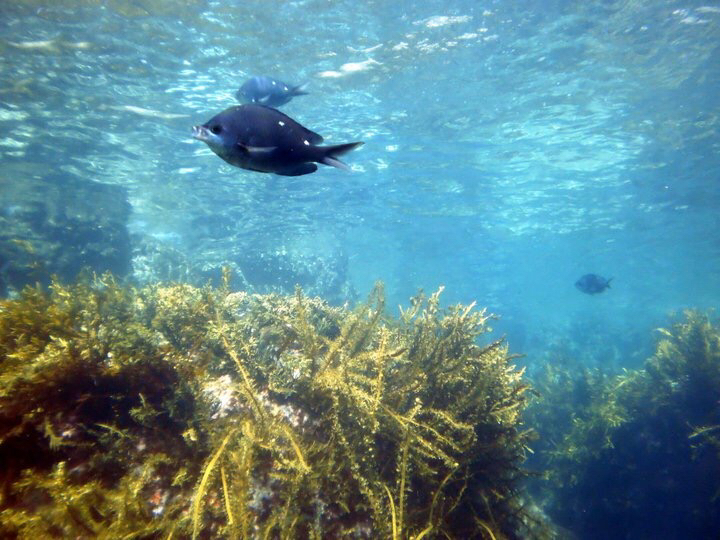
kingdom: Animalia
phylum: Chordata
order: Perciformes
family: Pomacentridae
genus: Chromis
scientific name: Chromis dispilus
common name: Demoiselle
